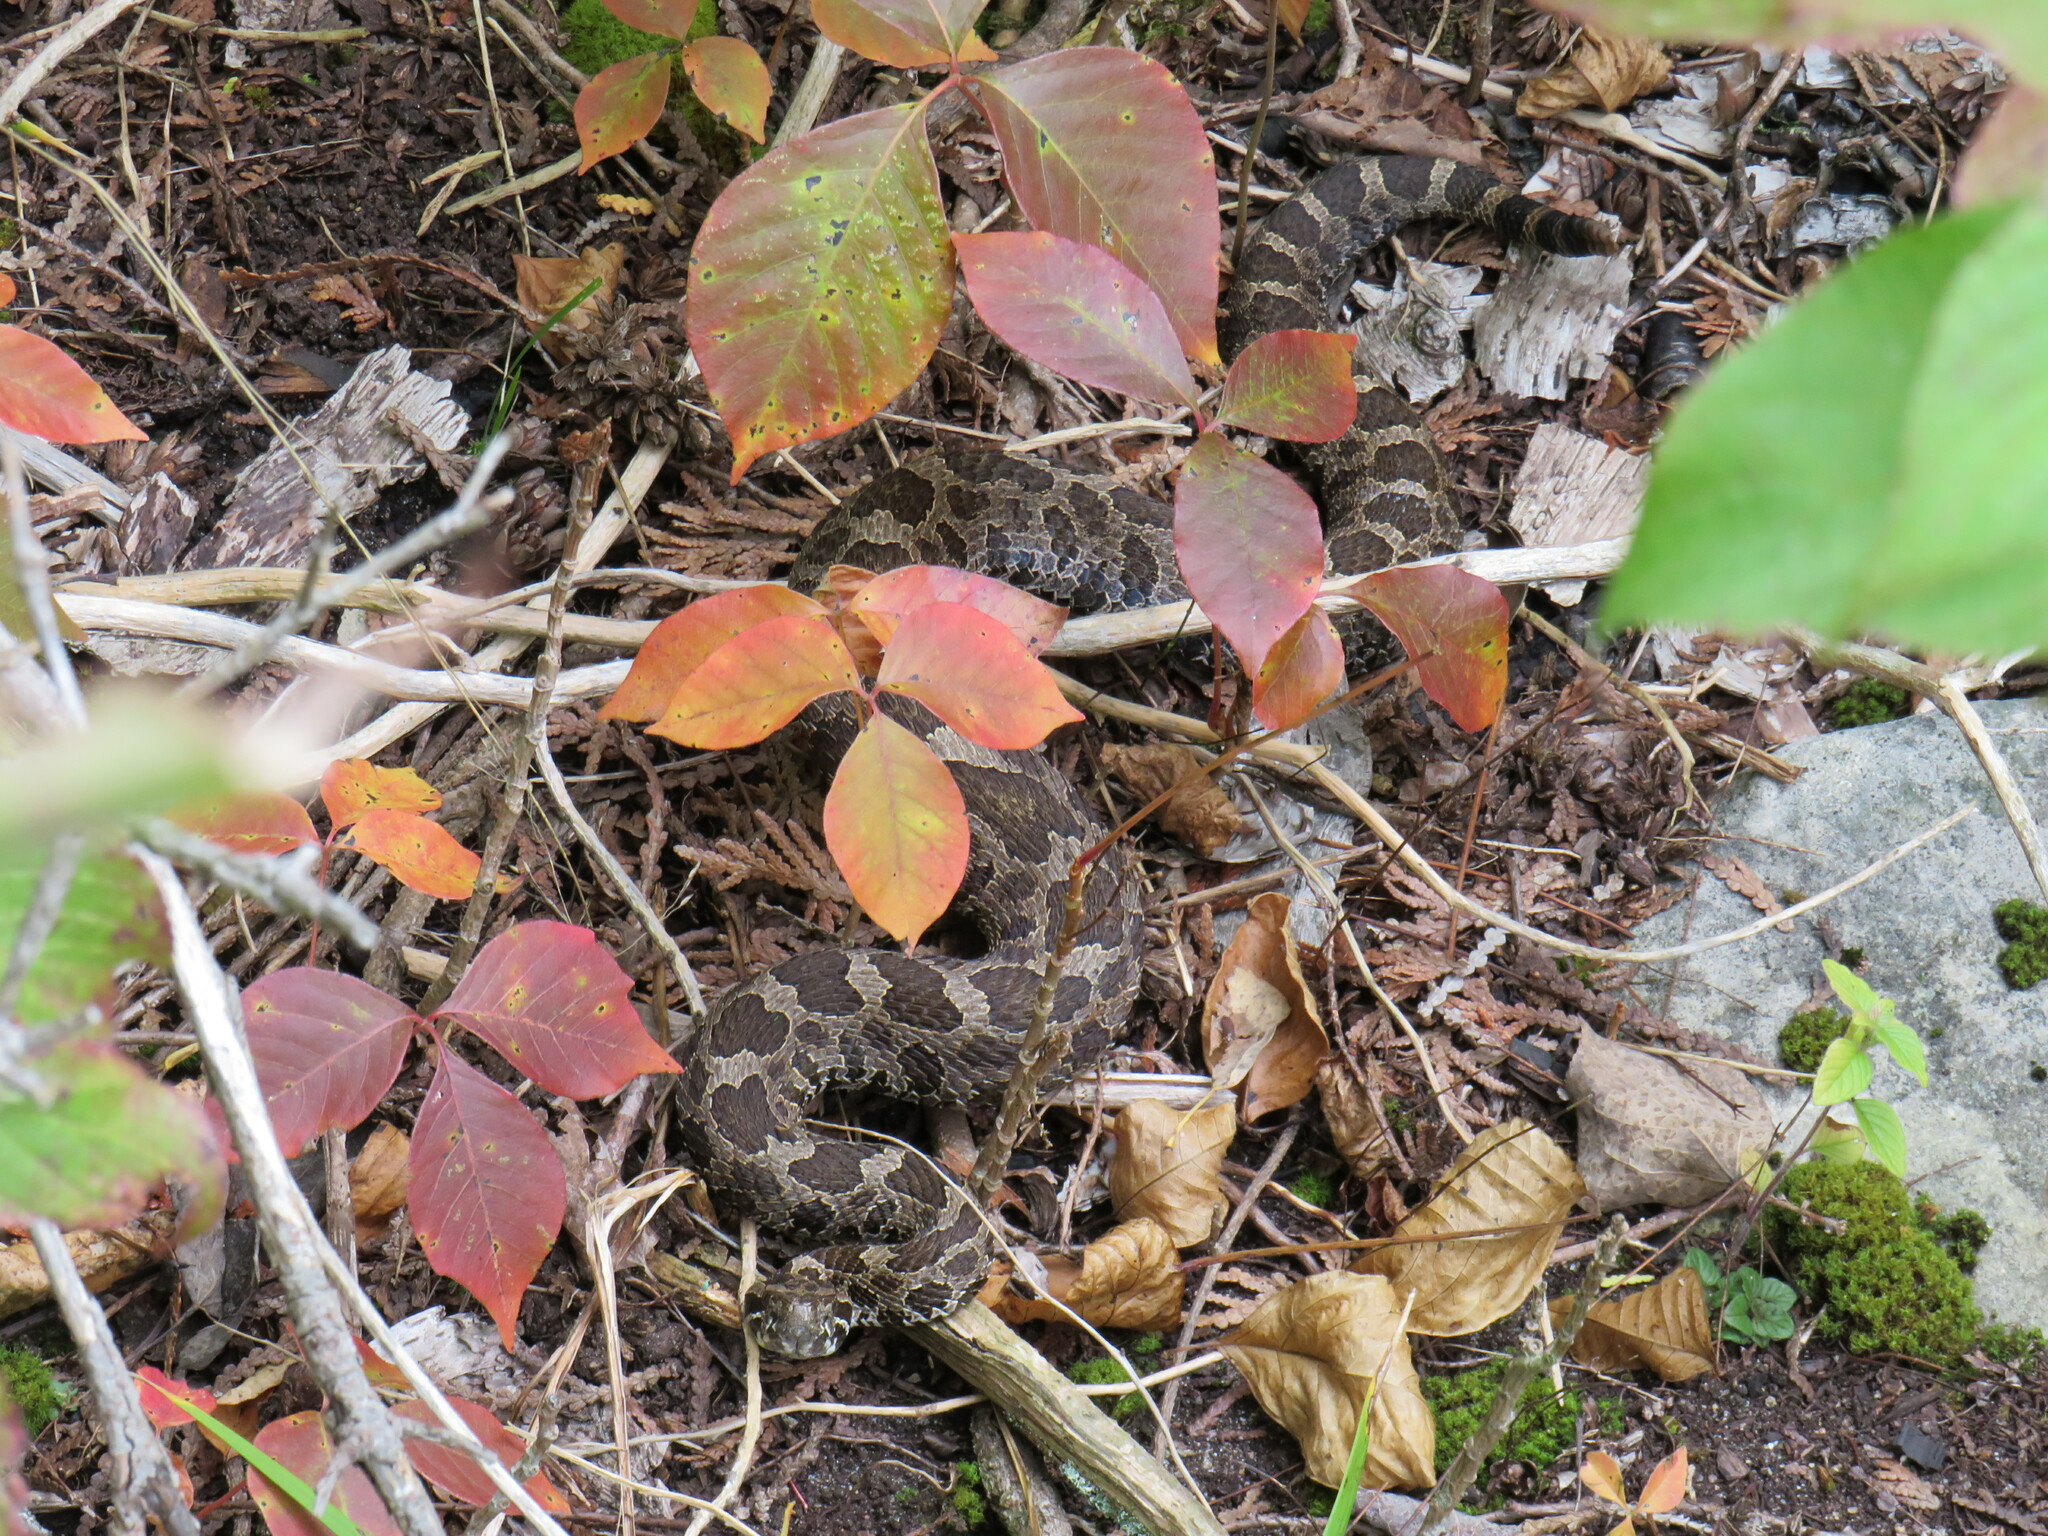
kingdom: Animalia
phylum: Chordata
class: Squamata
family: Viperidae
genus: Sistrurus
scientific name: Sistrurus catenatus
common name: Massasauga
